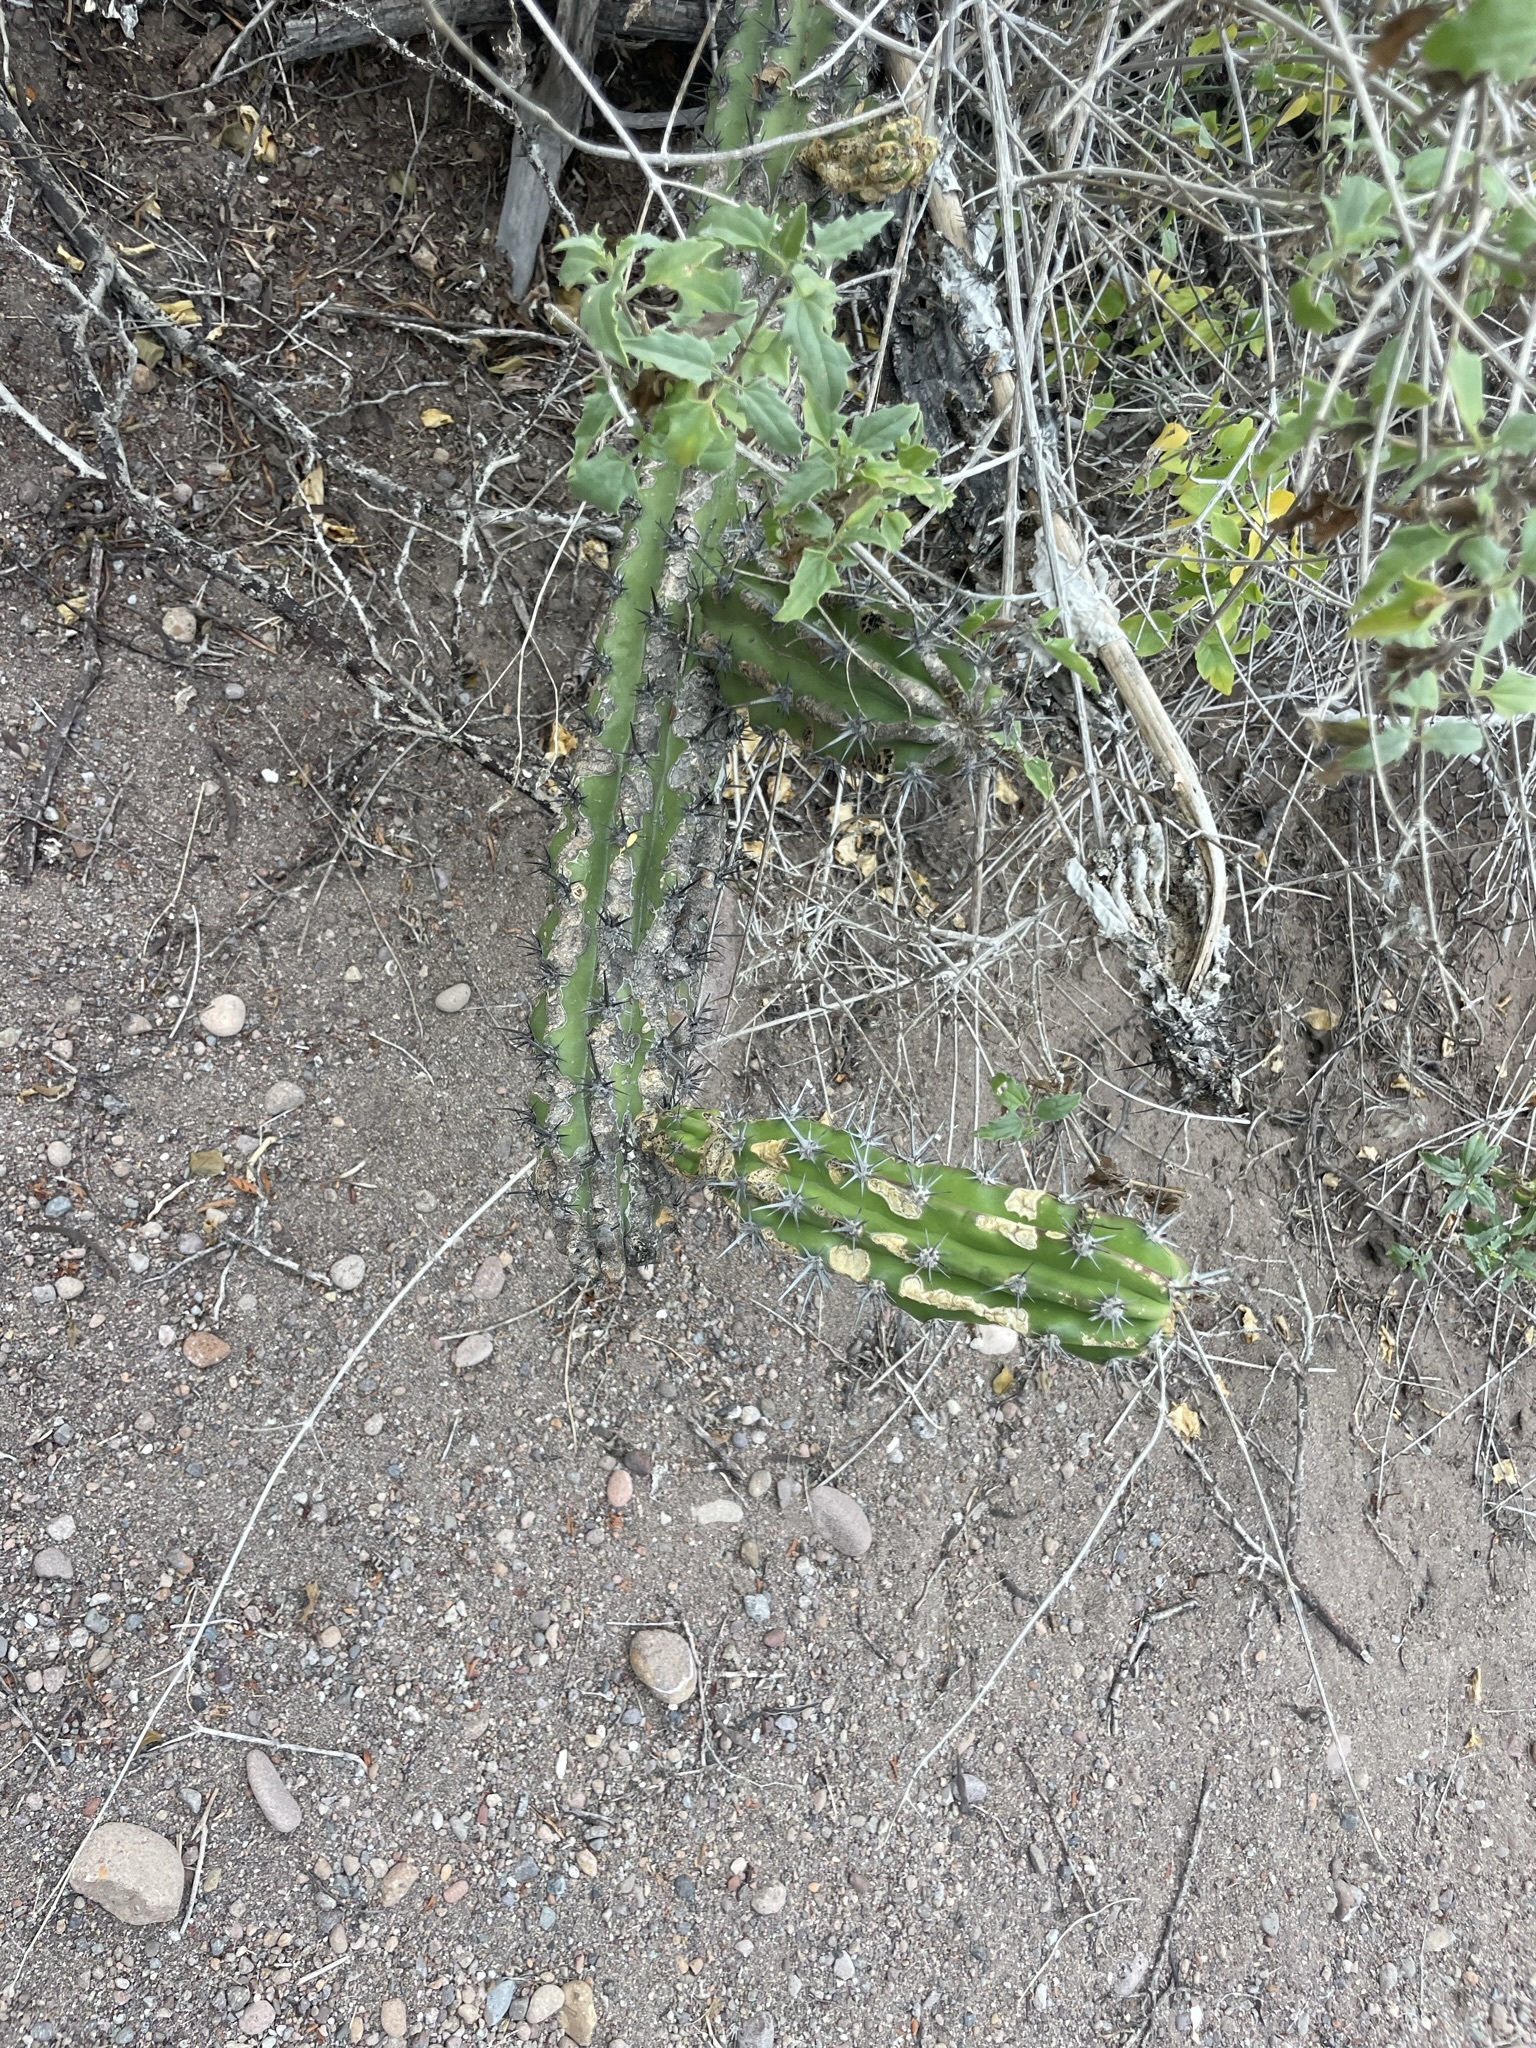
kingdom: Plantae
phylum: Tracheophyta
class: Magnoliopsida
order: Caryophyllales
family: Cactaceae
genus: Stenocereus
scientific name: Stenocereus gummosus
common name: Dagger cactus
